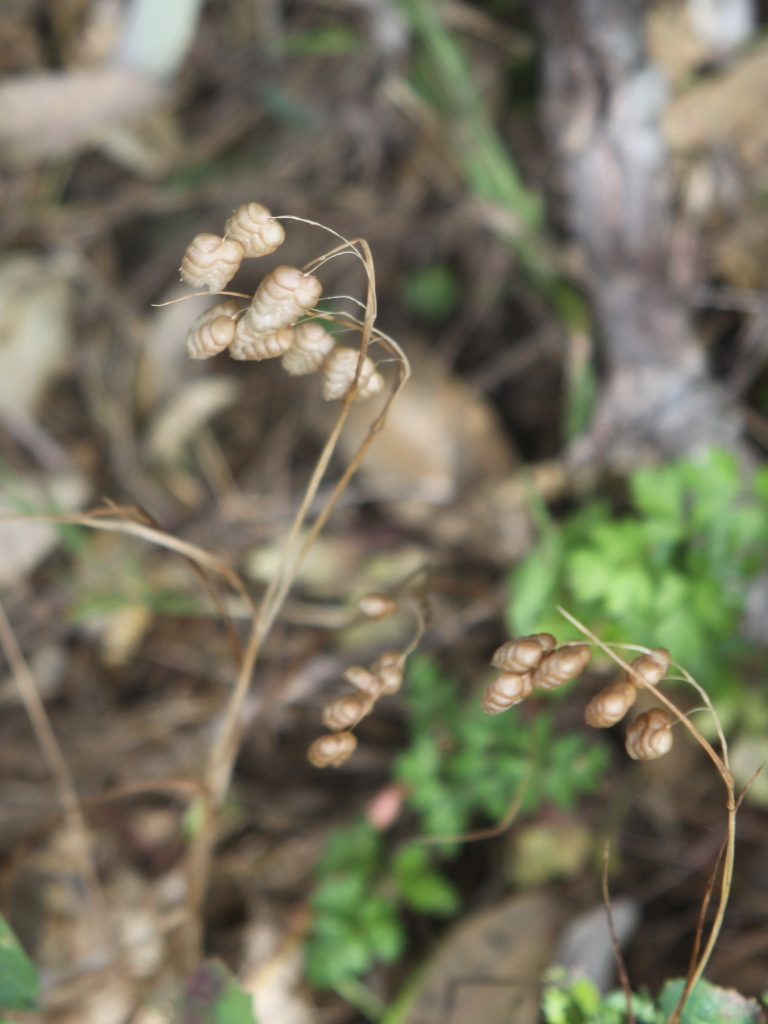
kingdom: Plantae
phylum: Tracheophyta
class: Liliopsida
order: Poales
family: Poaceae
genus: Briza
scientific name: Briza maxima
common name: Big quakinggrass
